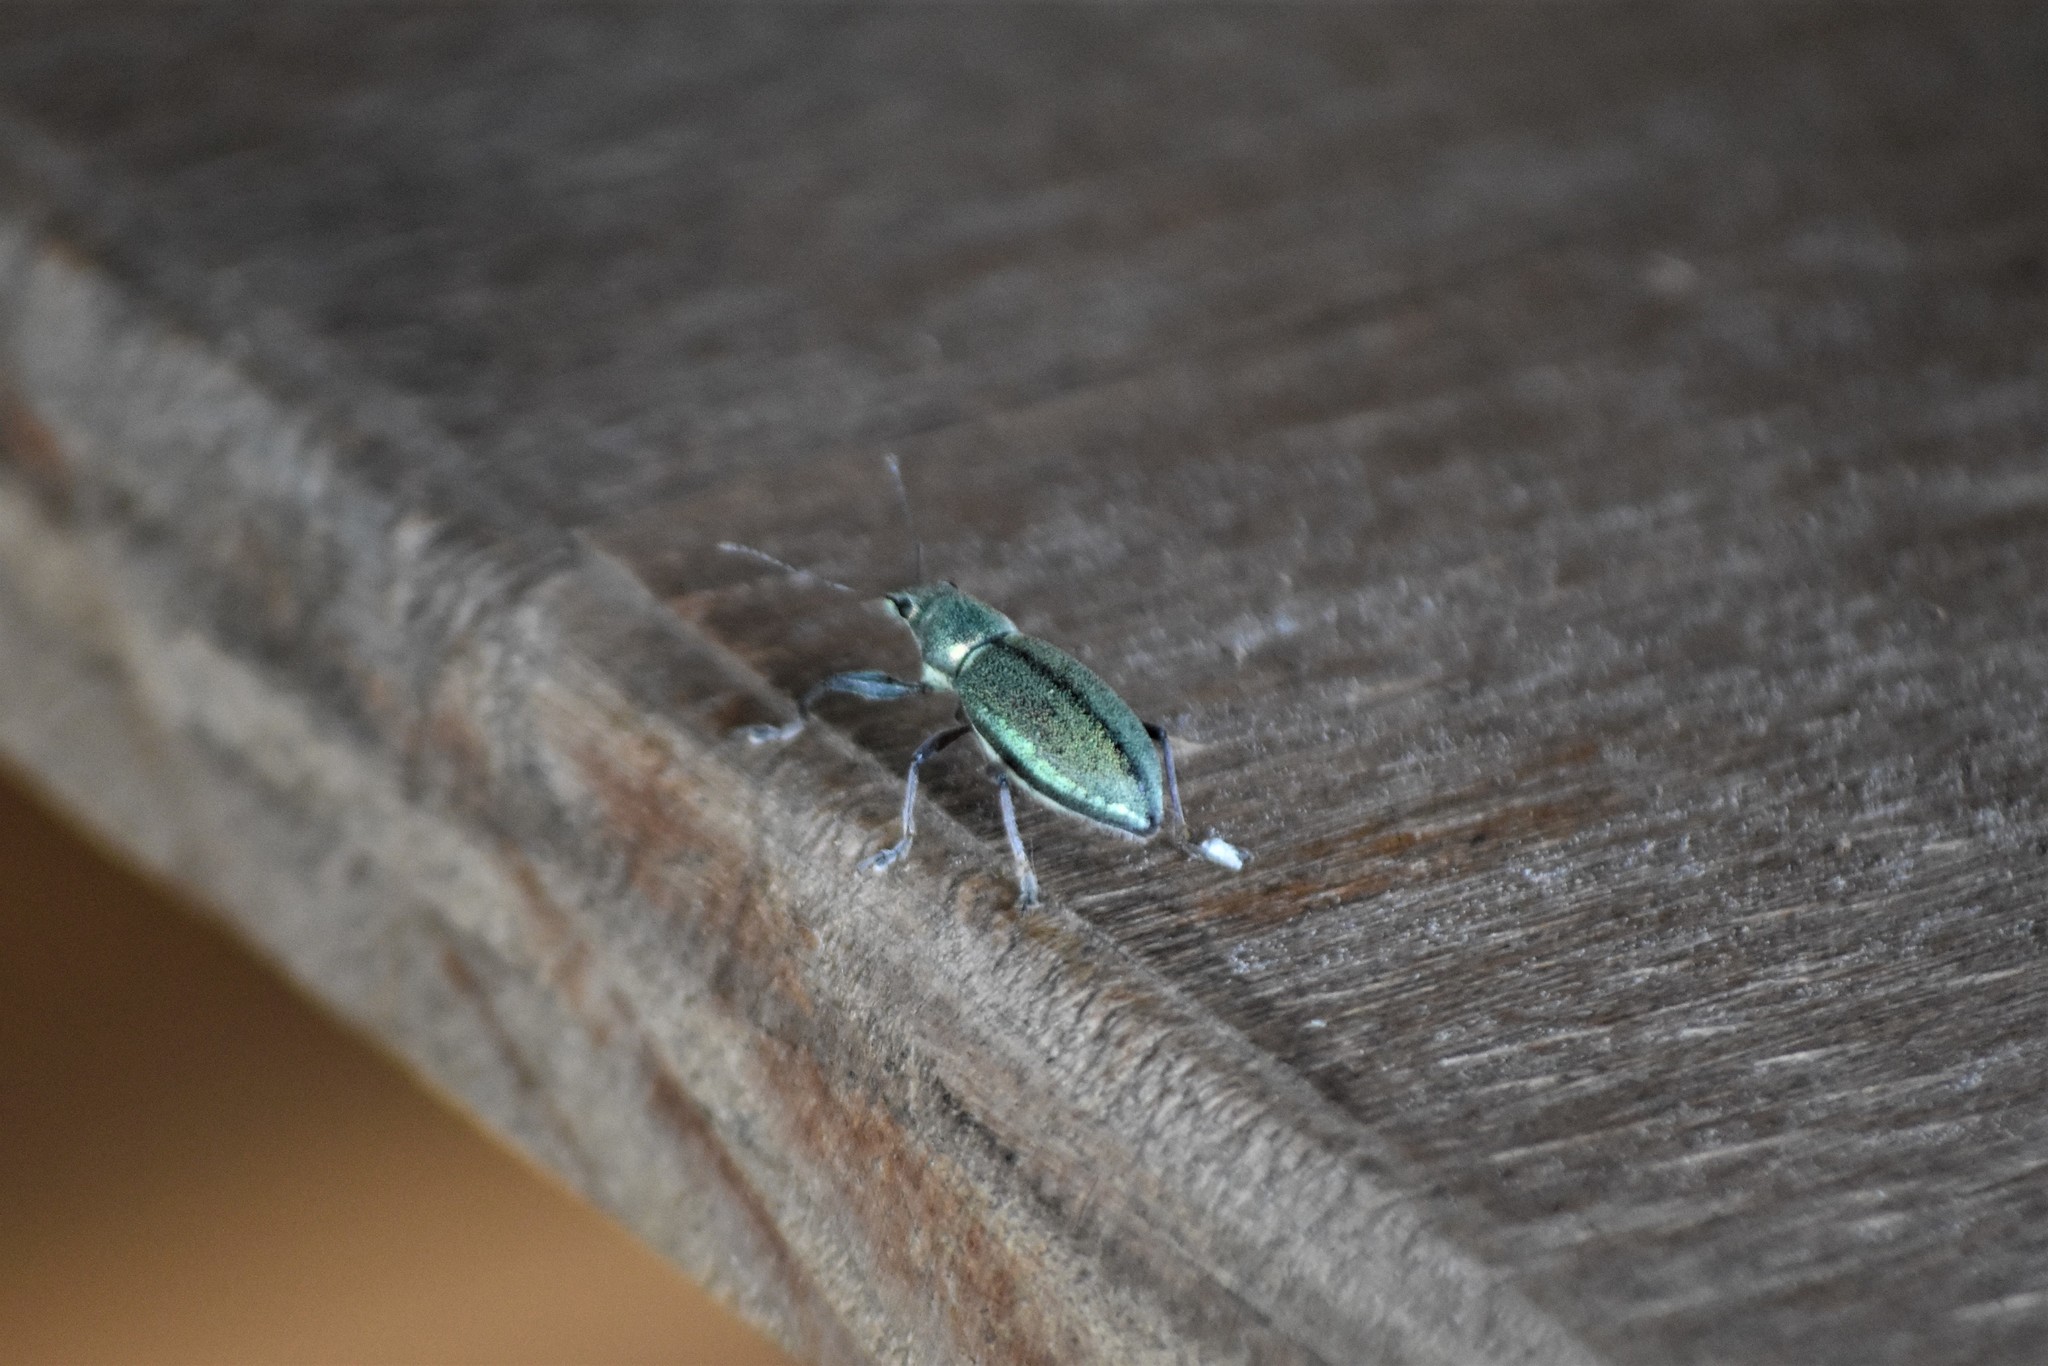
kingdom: Animalia
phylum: Arthropoda
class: Insecta
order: Coleoptera
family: Curculionidae
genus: Naupactus
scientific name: Naupactus auricinctus
